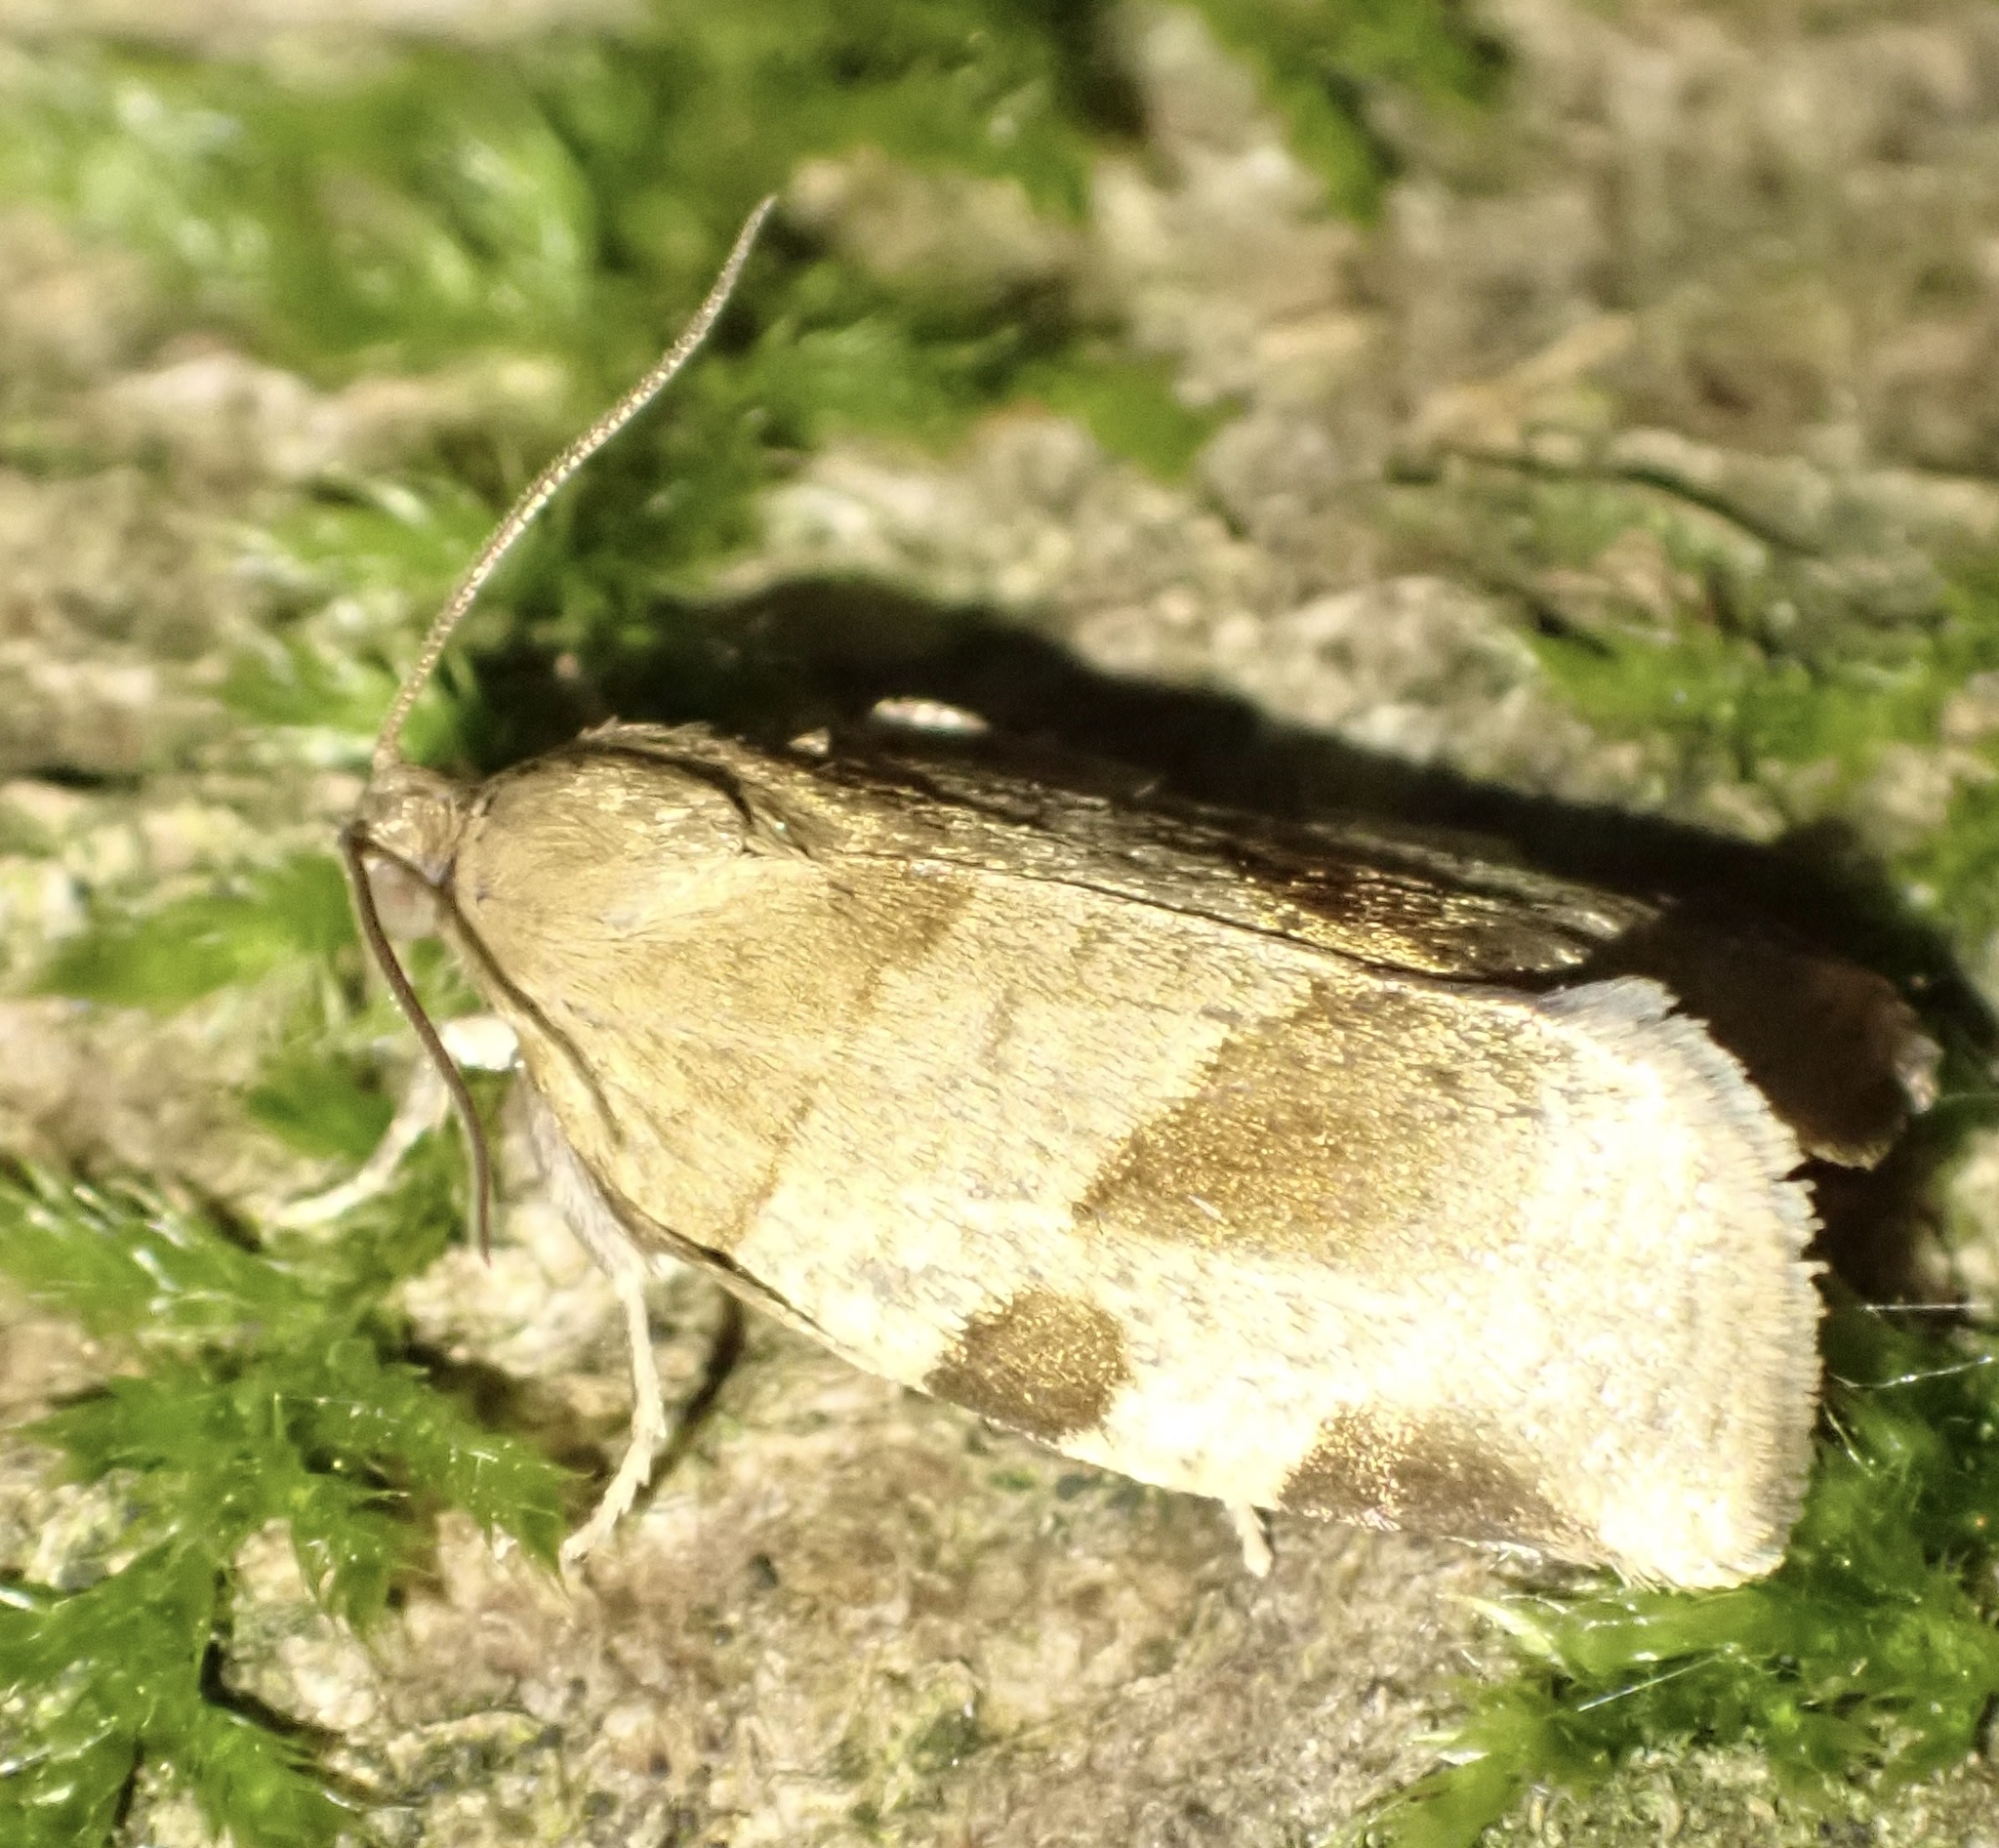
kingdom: Animalia
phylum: Arthropoda
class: Insecta
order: Lepidoptera
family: Tortricidae
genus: Choristoneura
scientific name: Choristoneura hebenstreitella
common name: Great twist
